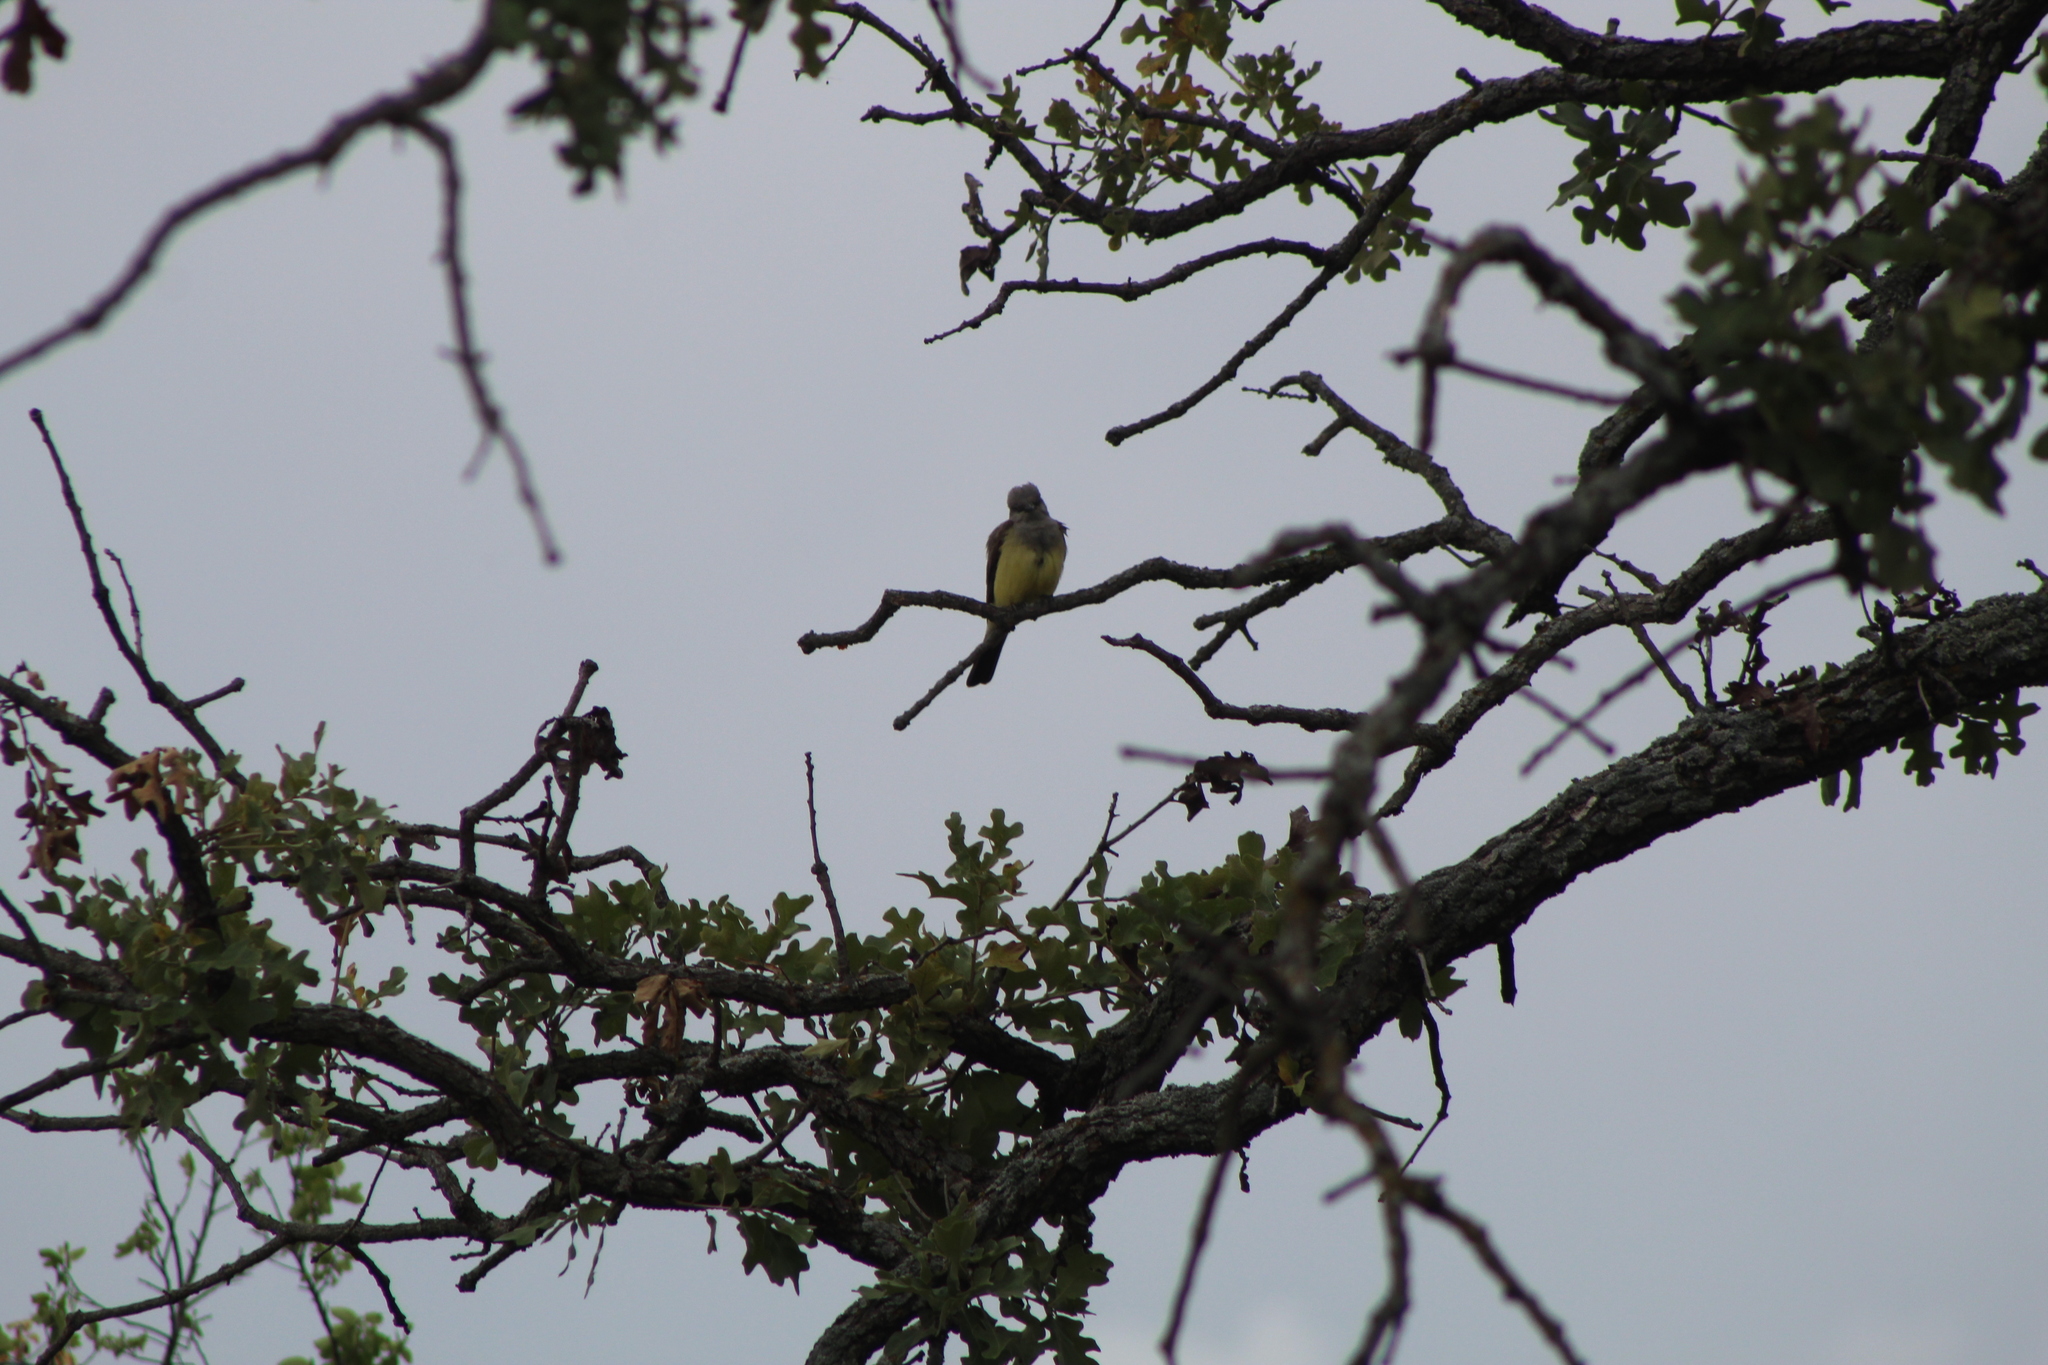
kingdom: Animalia
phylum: Chordata
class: Aves
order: Passeriformes
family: Tyrannidae
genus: Tyrannus
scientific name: Tyrannus verticalis
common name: Western kingbird
